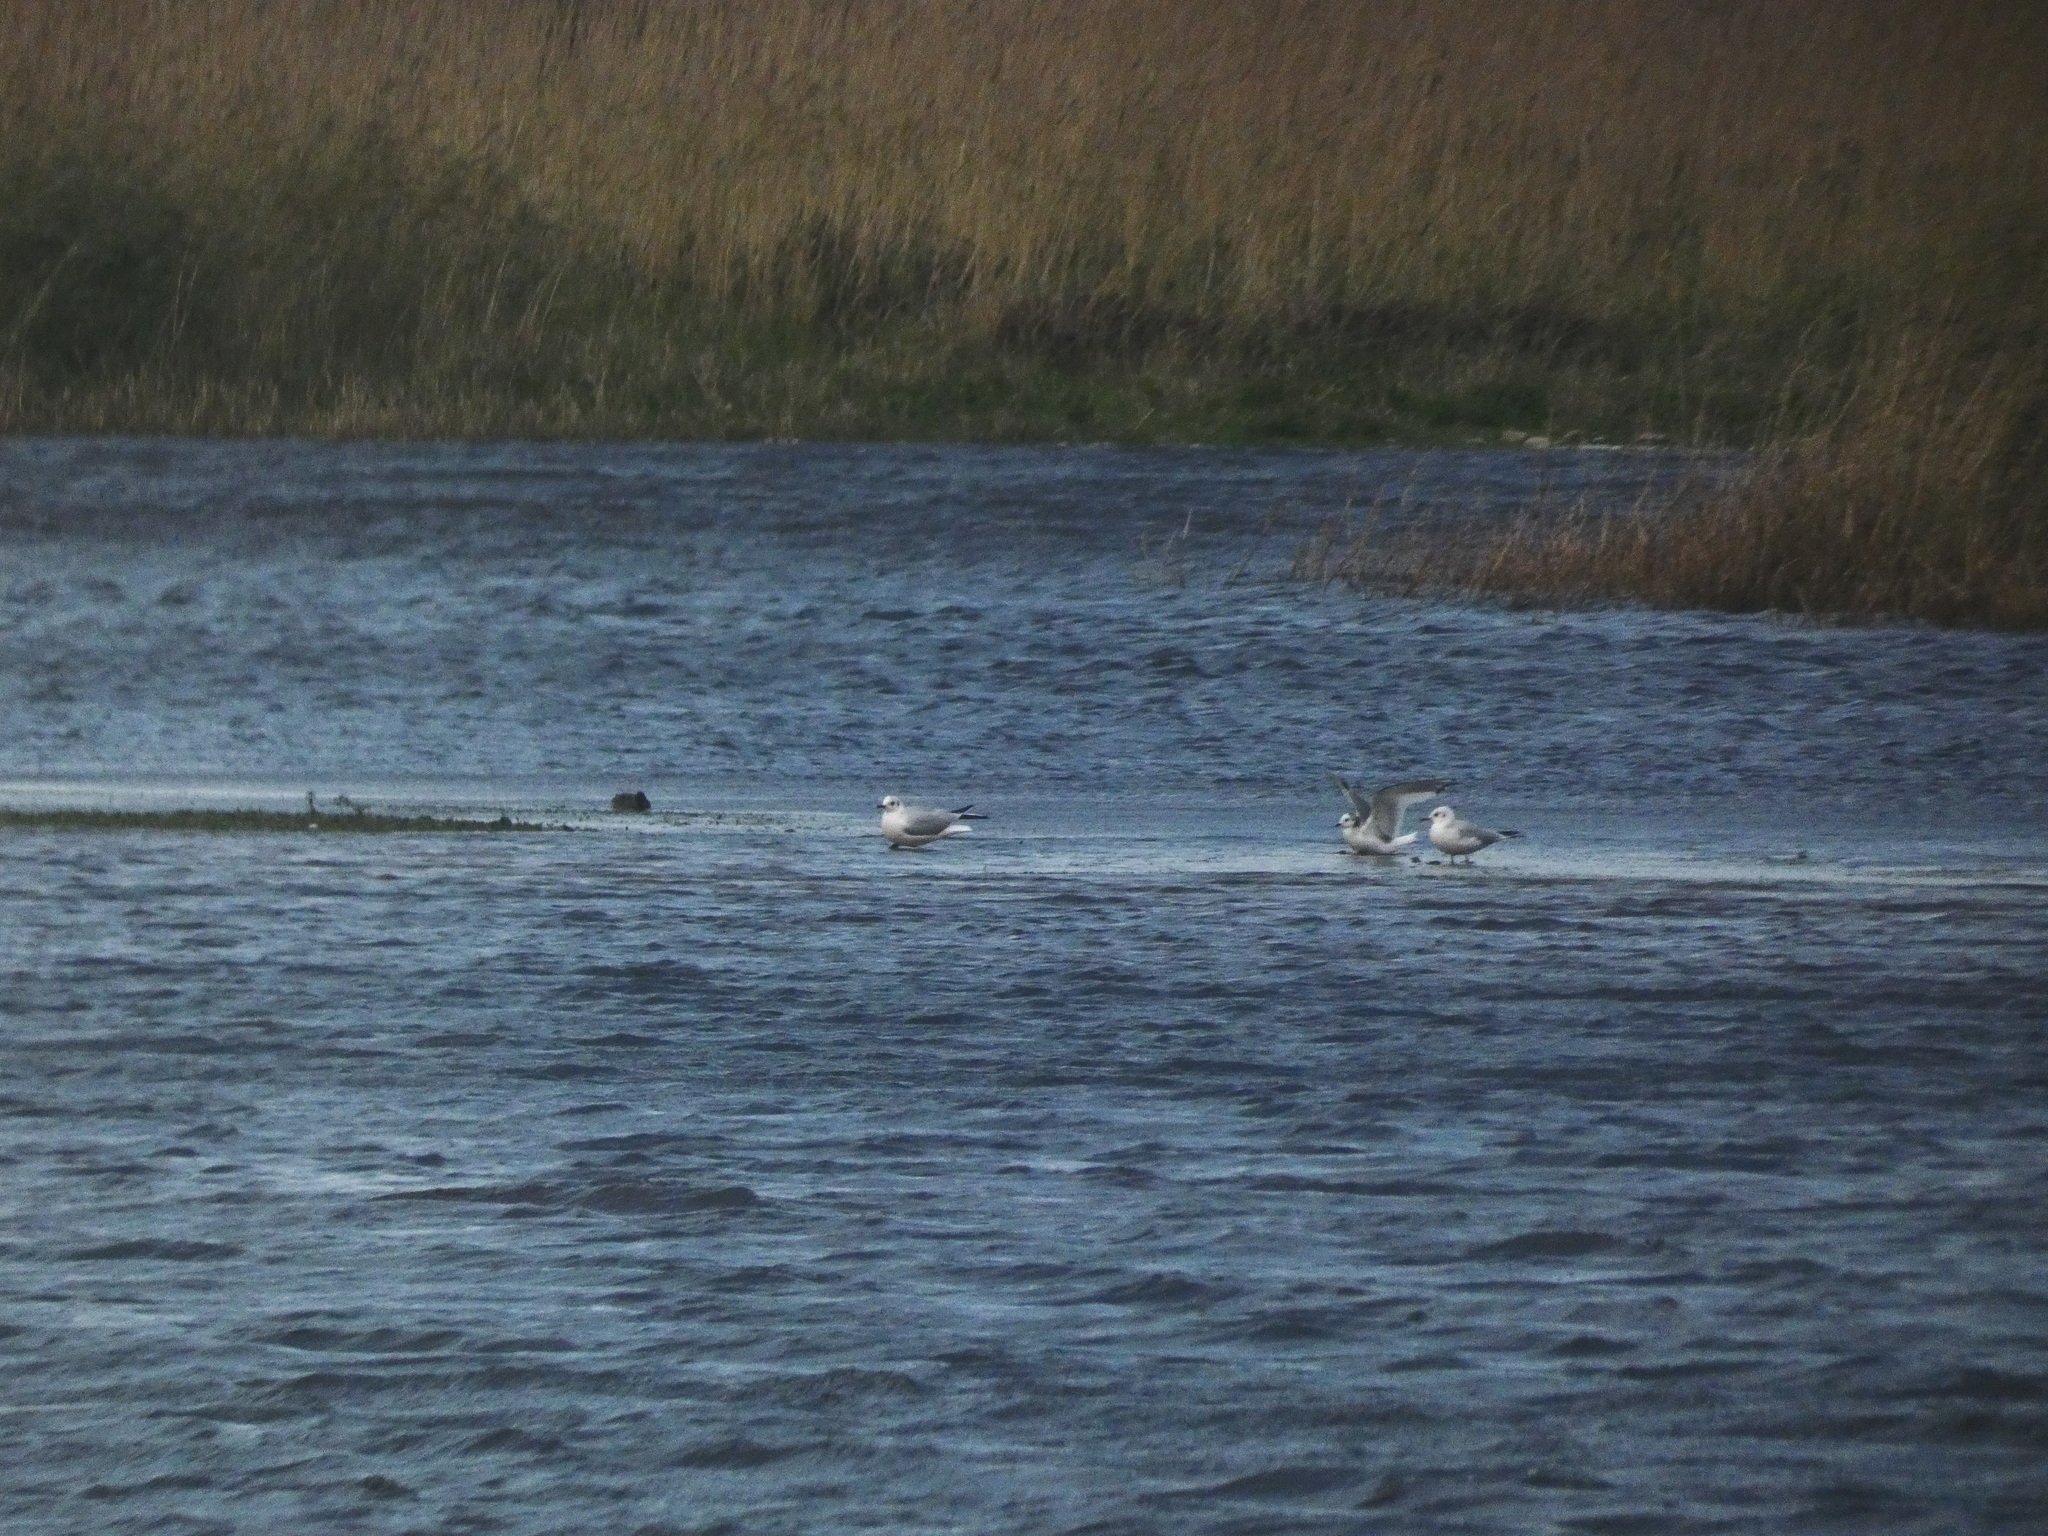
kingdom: Animalia
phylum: Chordata
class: Aves
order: Charadriiformes
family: Laridae
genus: Chroicocephalus
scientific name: Chroicocephalus ridibundus
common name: Black-headed gull
